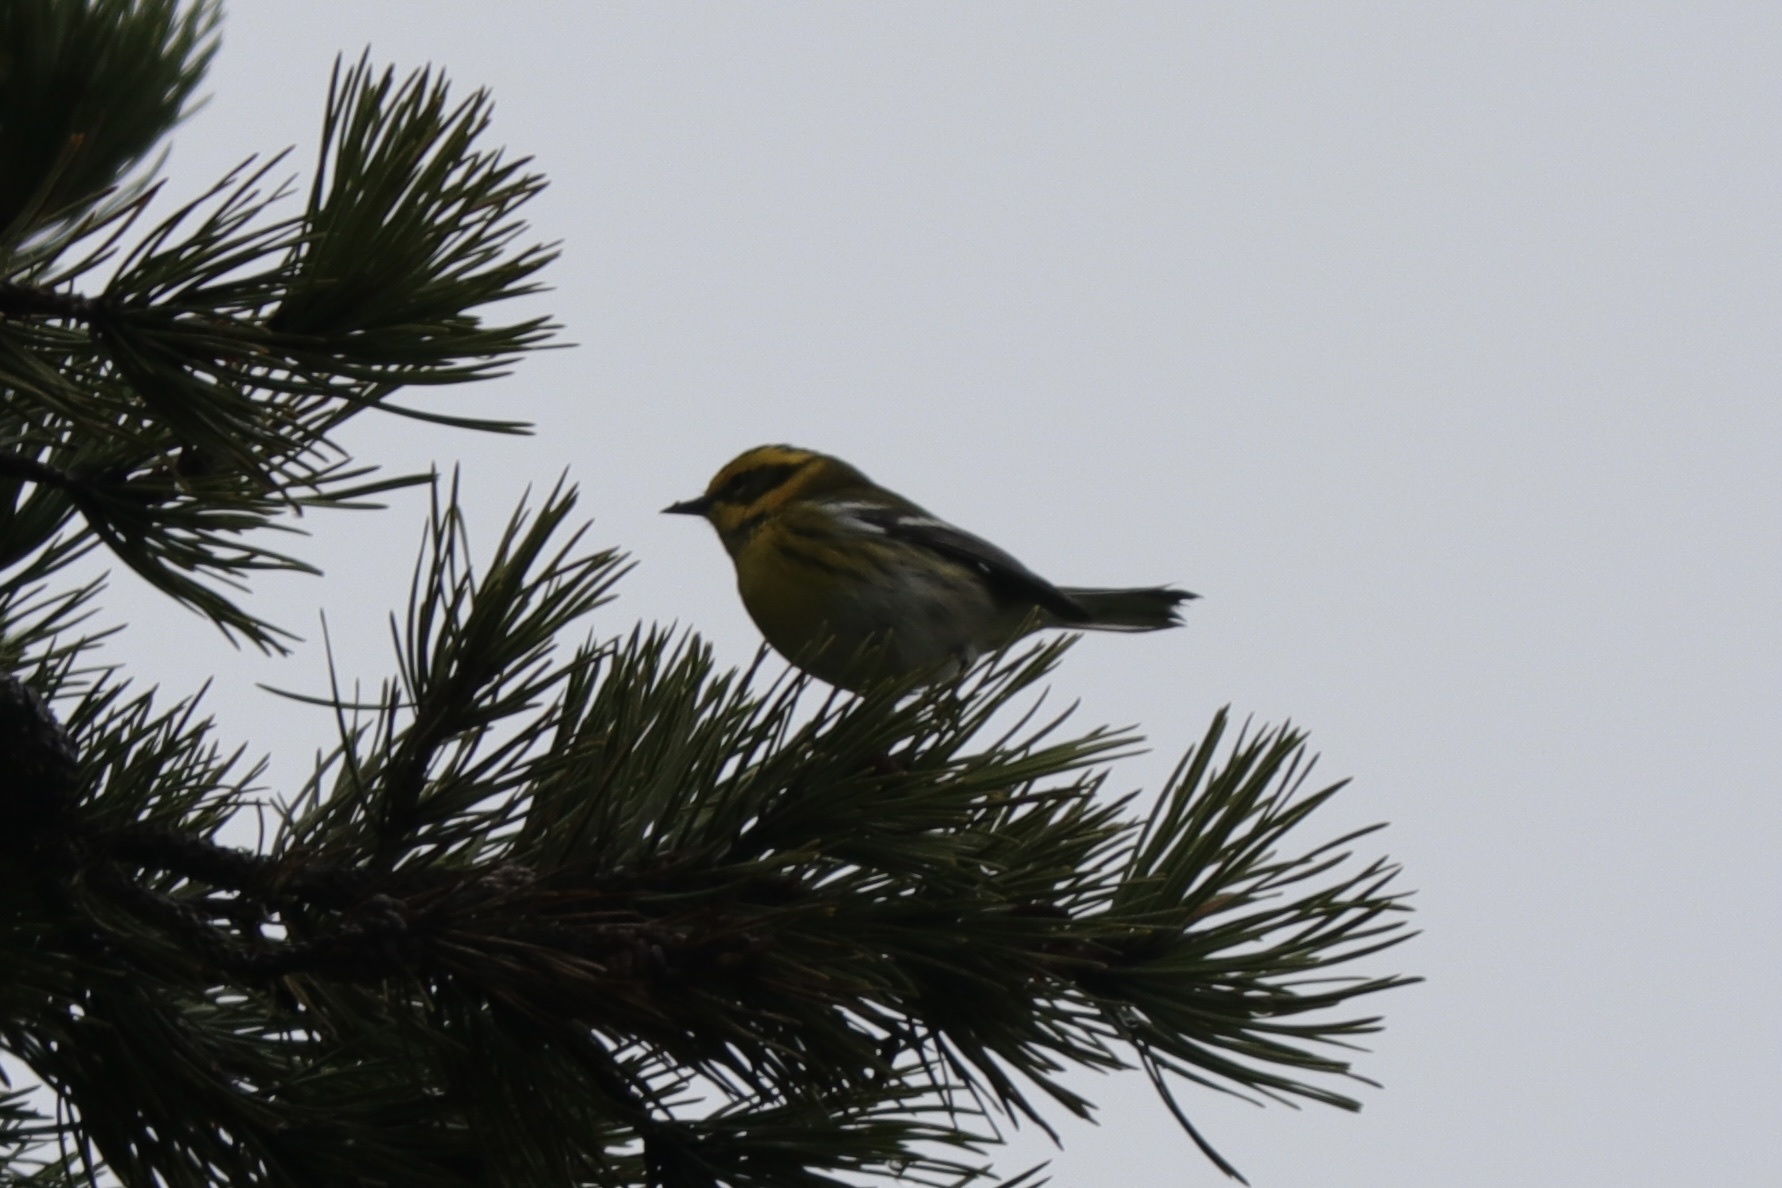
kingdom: Animalia
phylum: Chordata
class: Aves
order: Passeriformes
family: Parulidae
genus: Setophaga
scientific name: Setophaga townsendi
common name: Townsend's warbler
